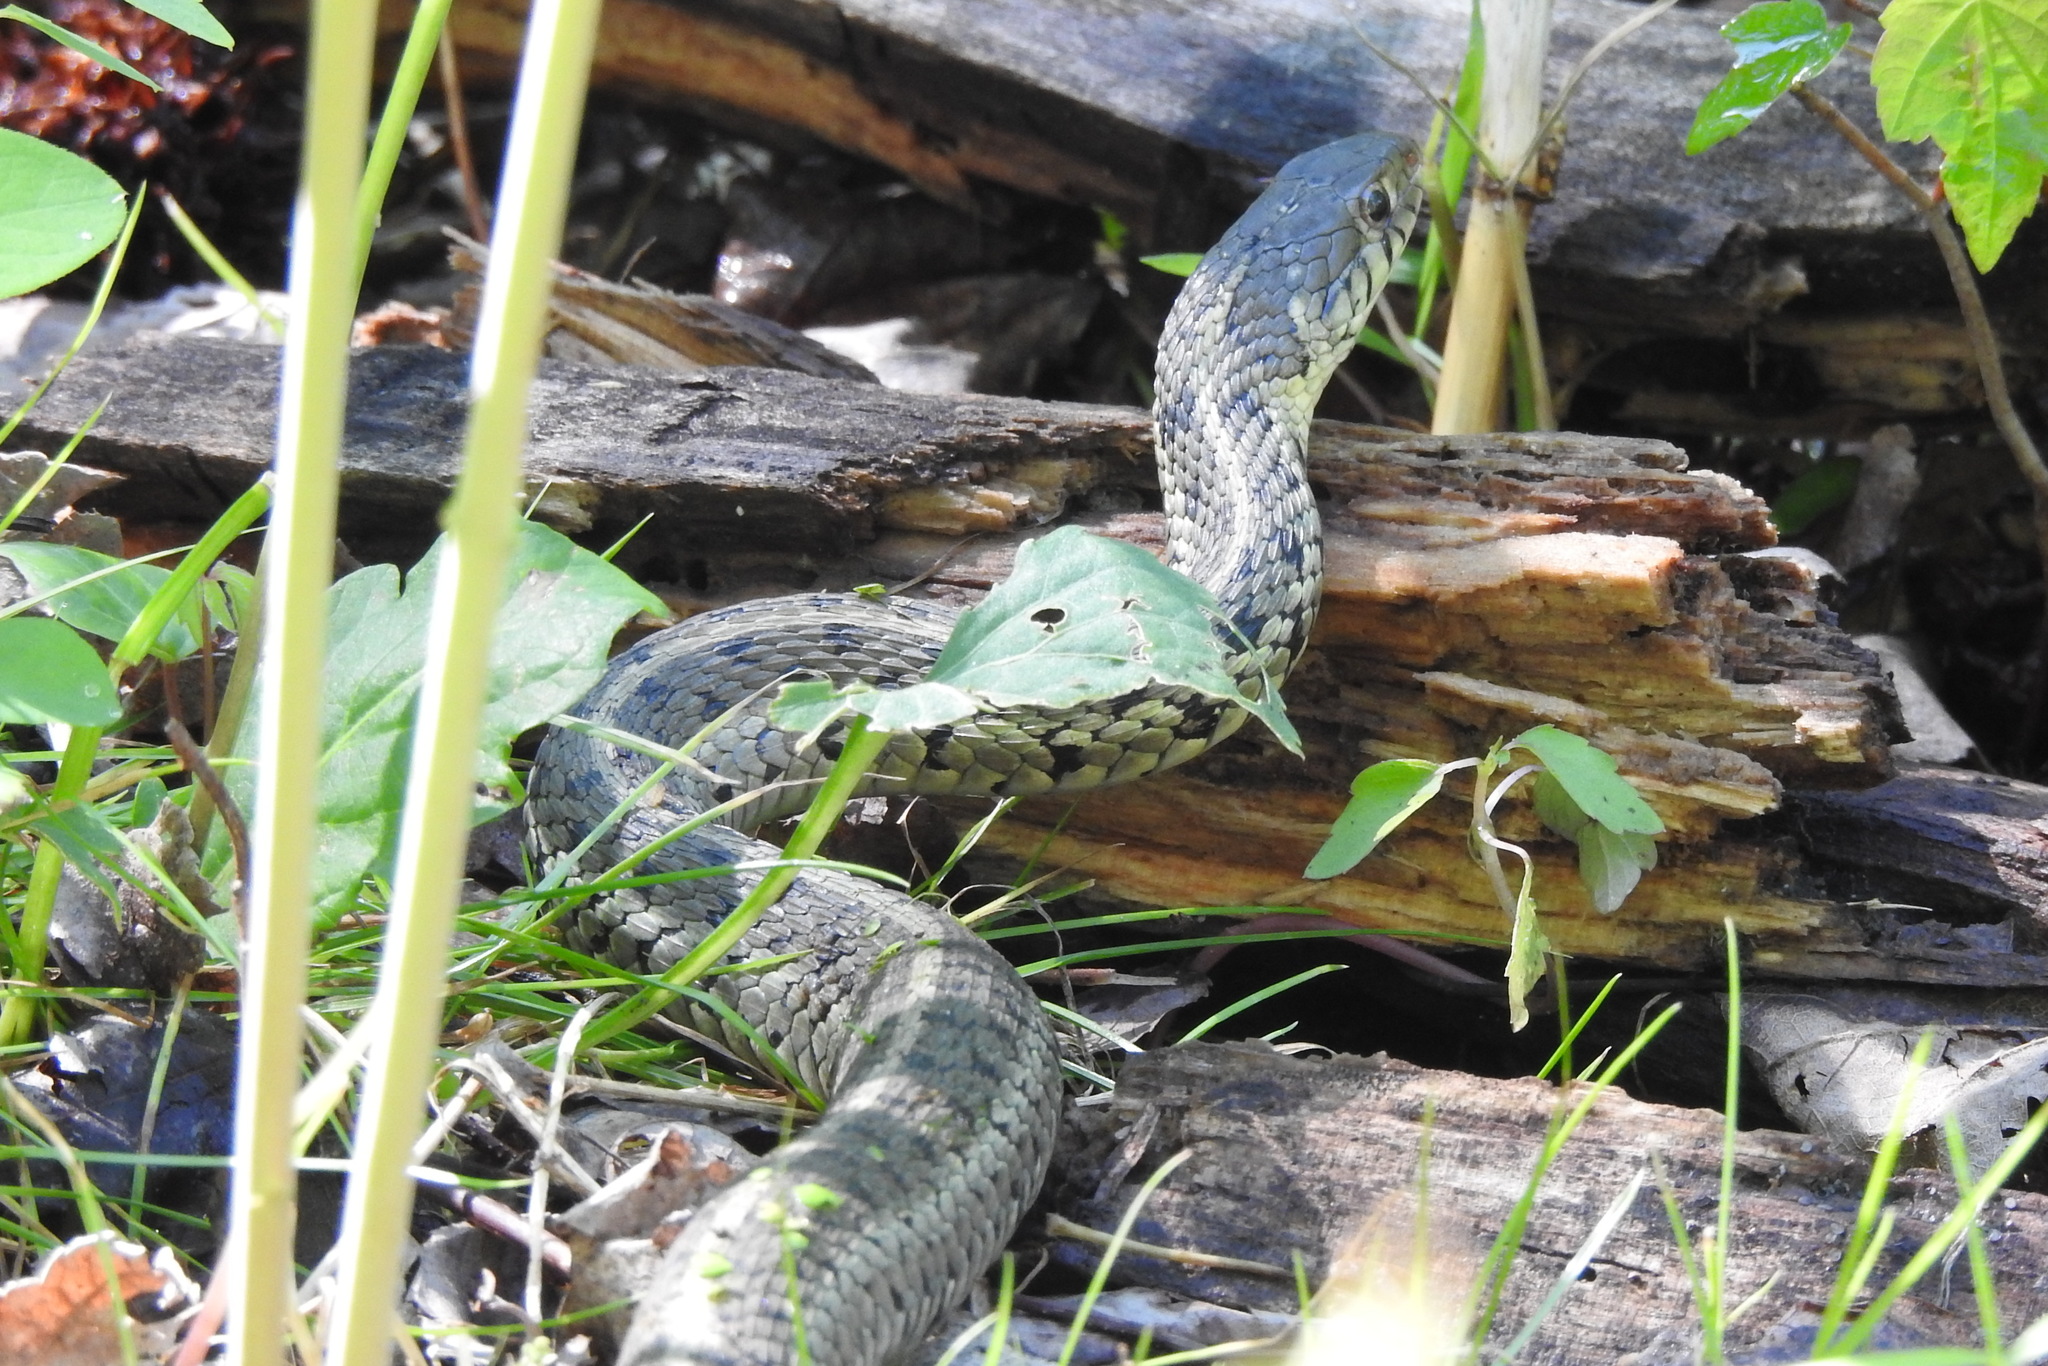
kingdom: Animalia
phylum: Chordata
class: Squamata
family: Colubridae
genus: Thamnophis
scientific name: Thamnophis sirtalis
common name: Common garter snake
